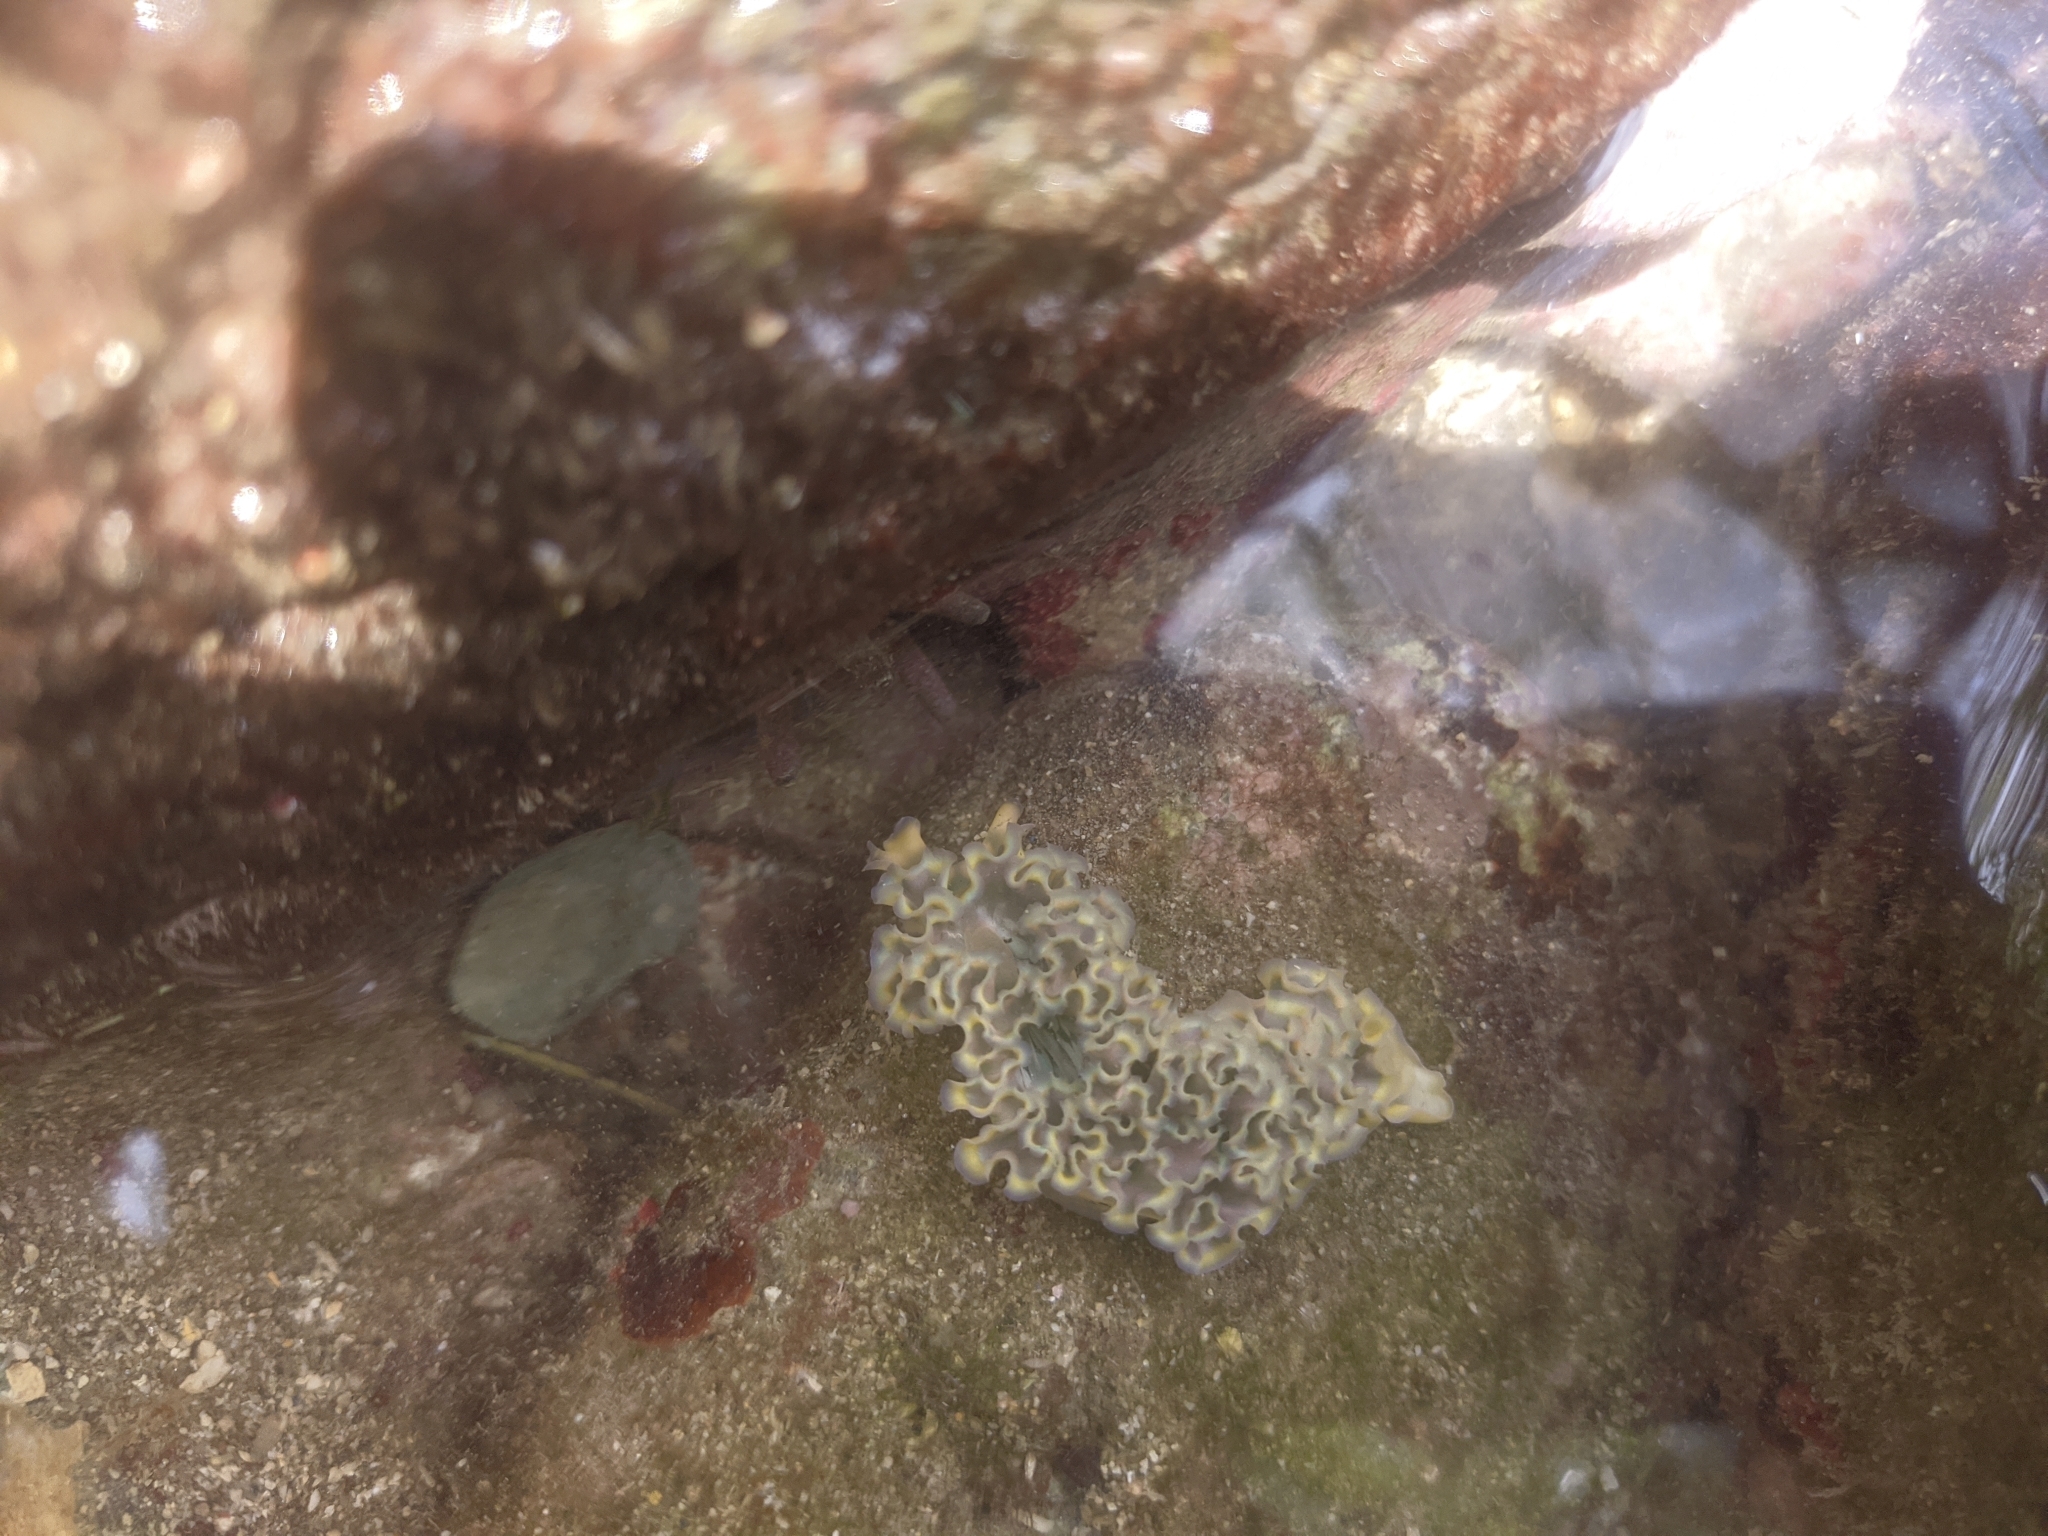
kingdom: Animalia
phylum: Mollusca
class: Gastropoda
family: Plakobranchidae
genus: Elysia
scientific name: Elysia crispata
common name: Lettuce slug
